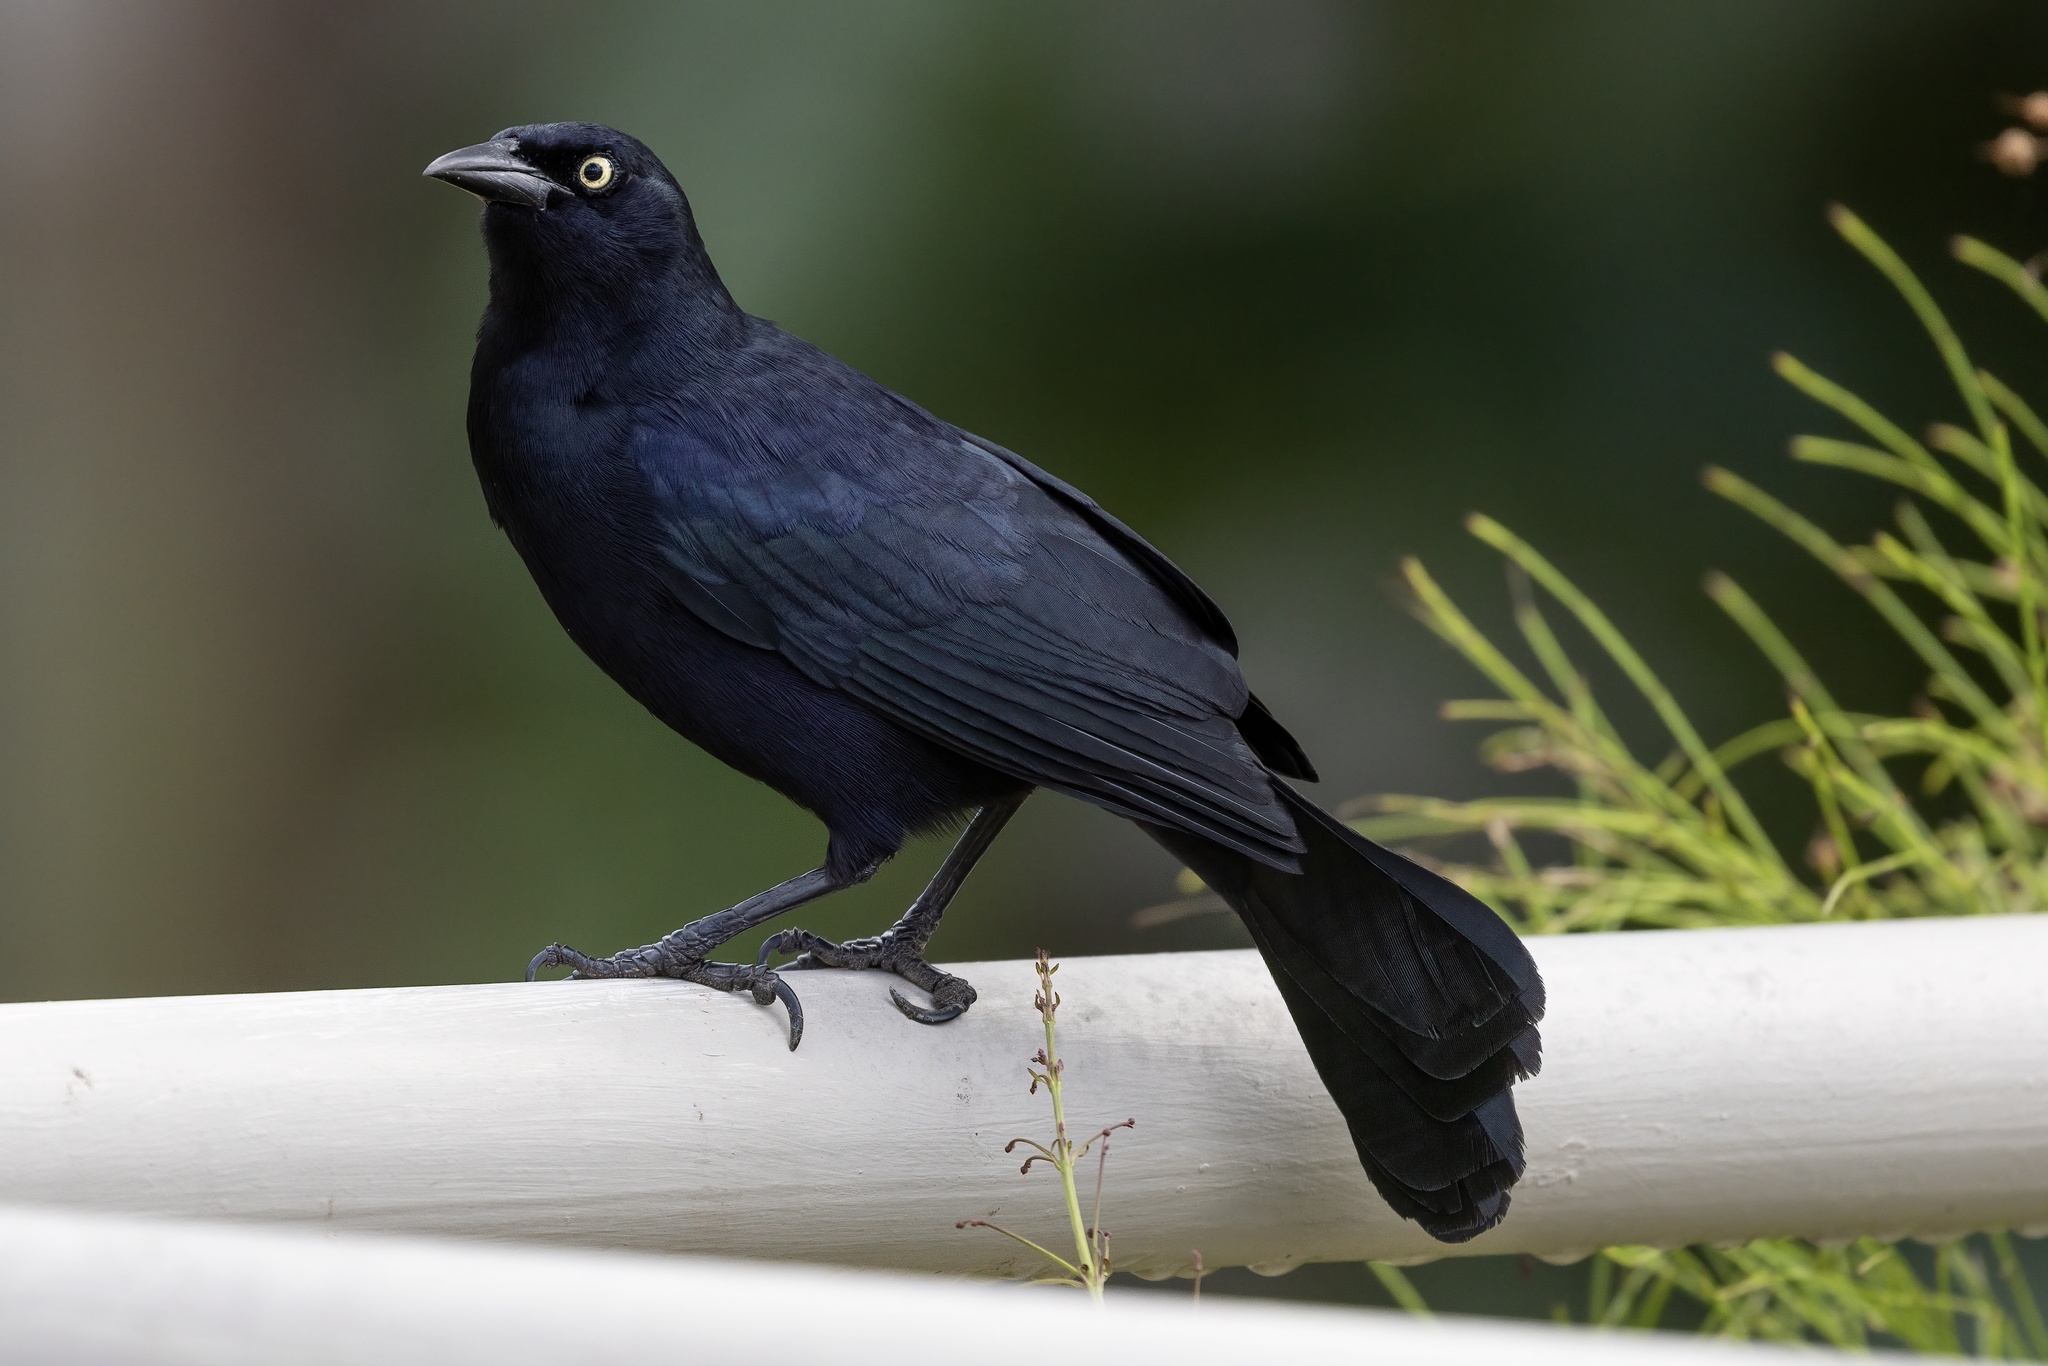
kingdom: Animalia
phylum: Chordata
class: Aves
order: Passeriformes
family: Icteridae
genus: Quiscalus
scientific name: Quiscalus niger
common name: Greater antillean grackle
